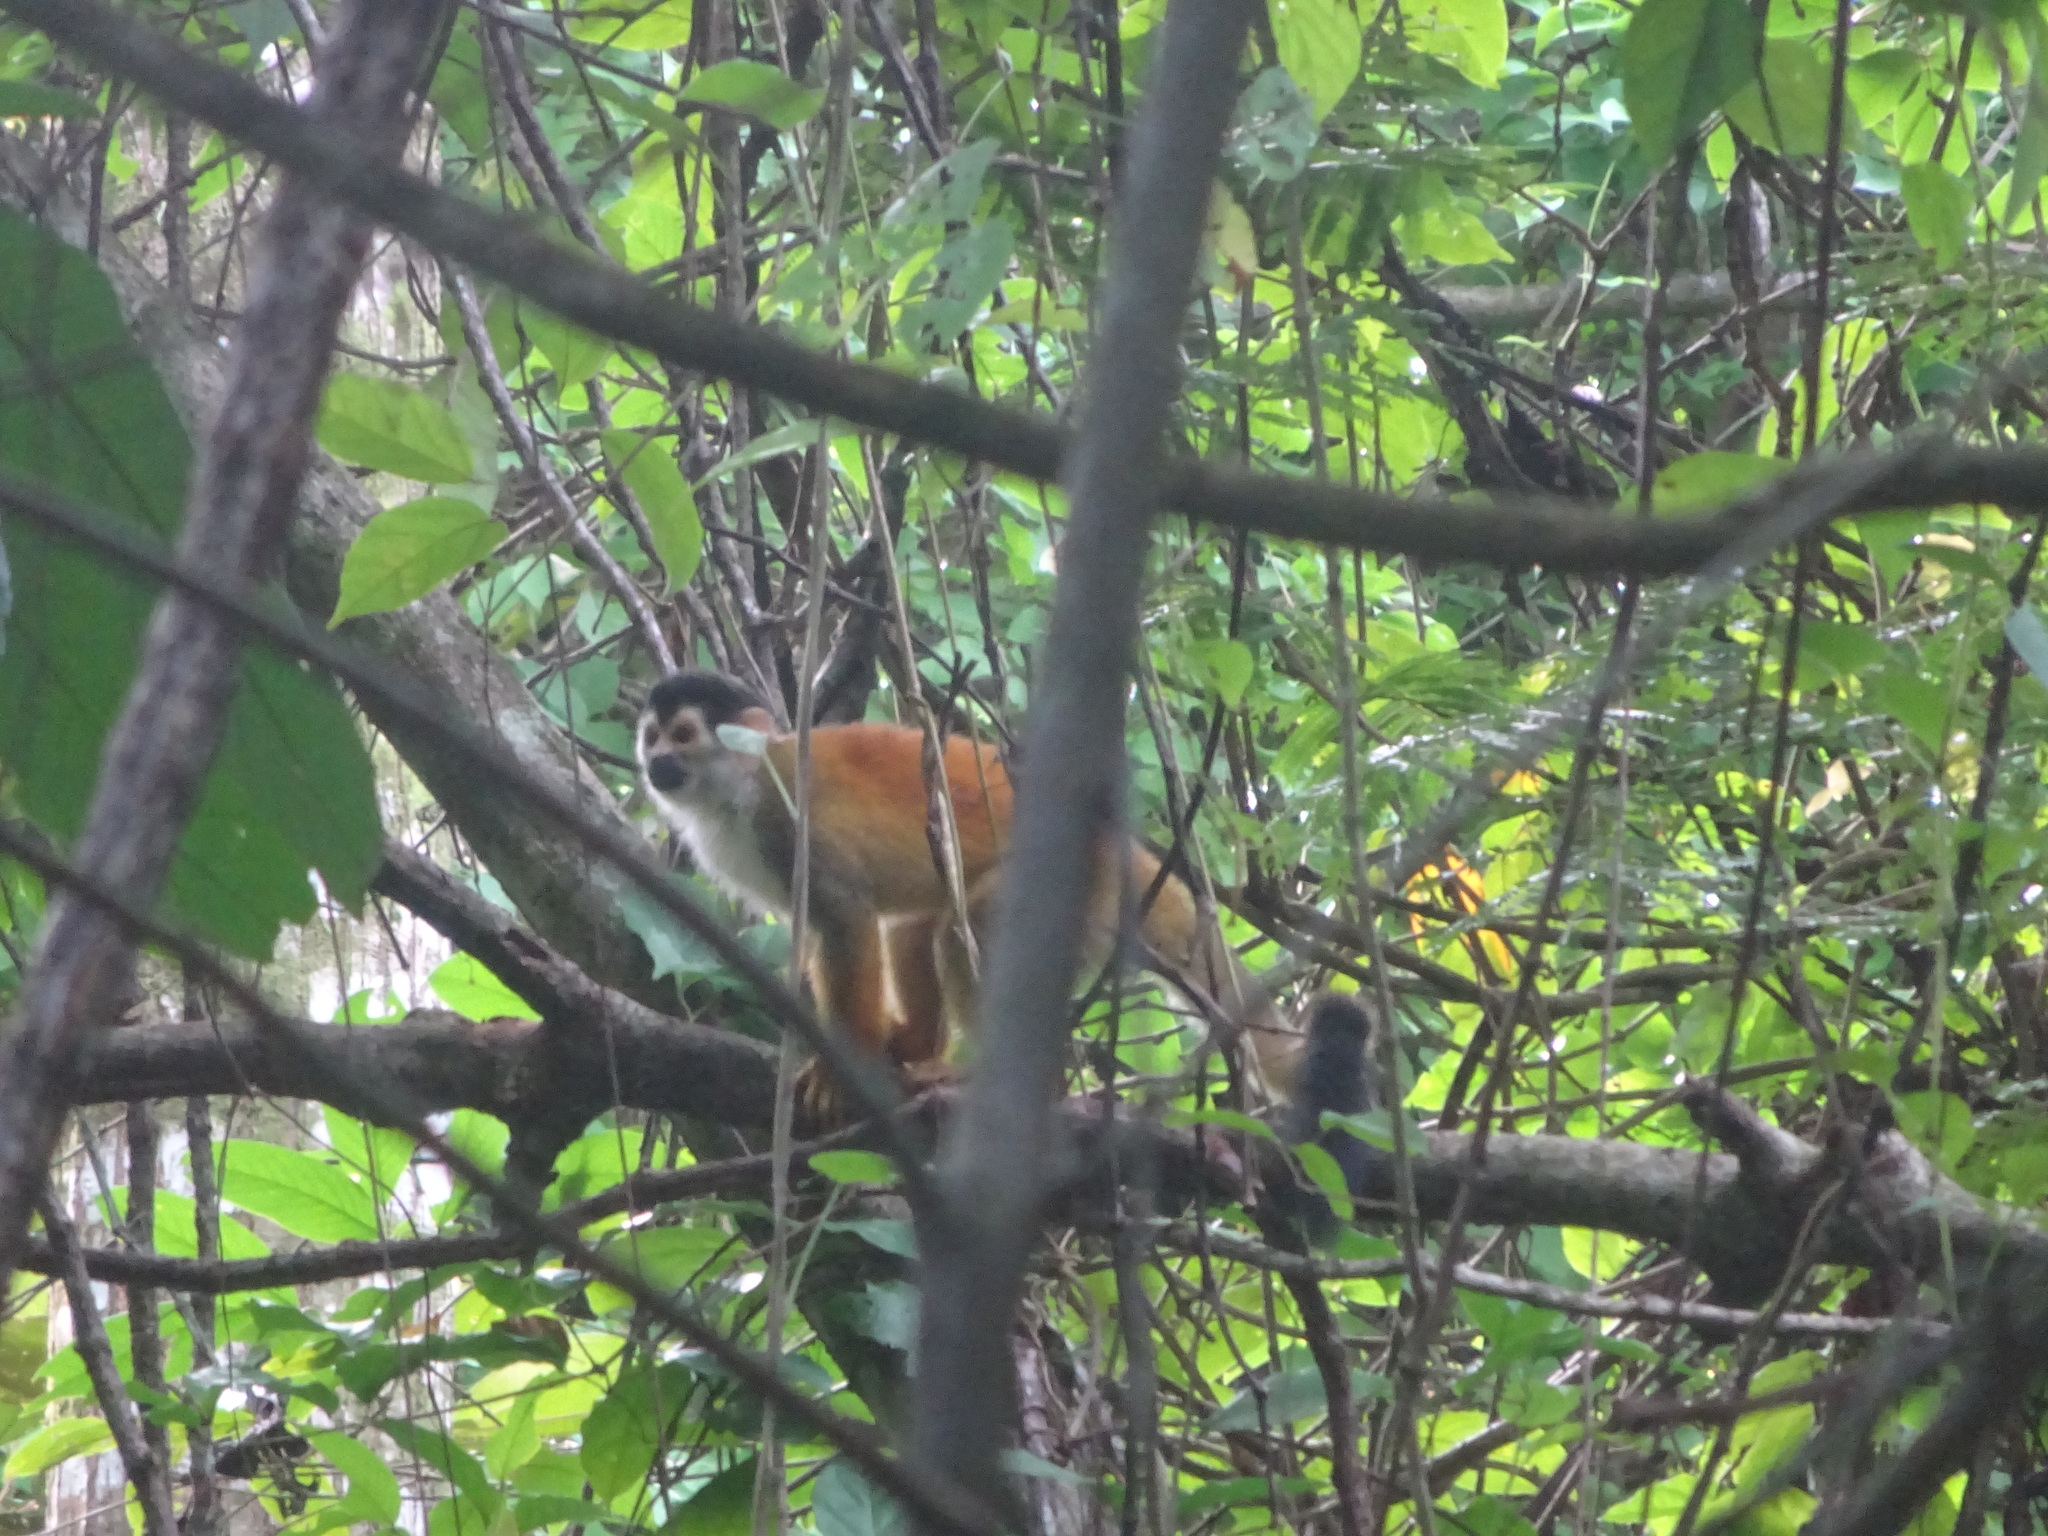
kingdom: Animalia
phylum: Chordata
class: Mammalia
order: Primates
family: Cebidae
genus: Saimiri
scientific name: Saimiri oerstedii
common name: Central american squirrel monkey
